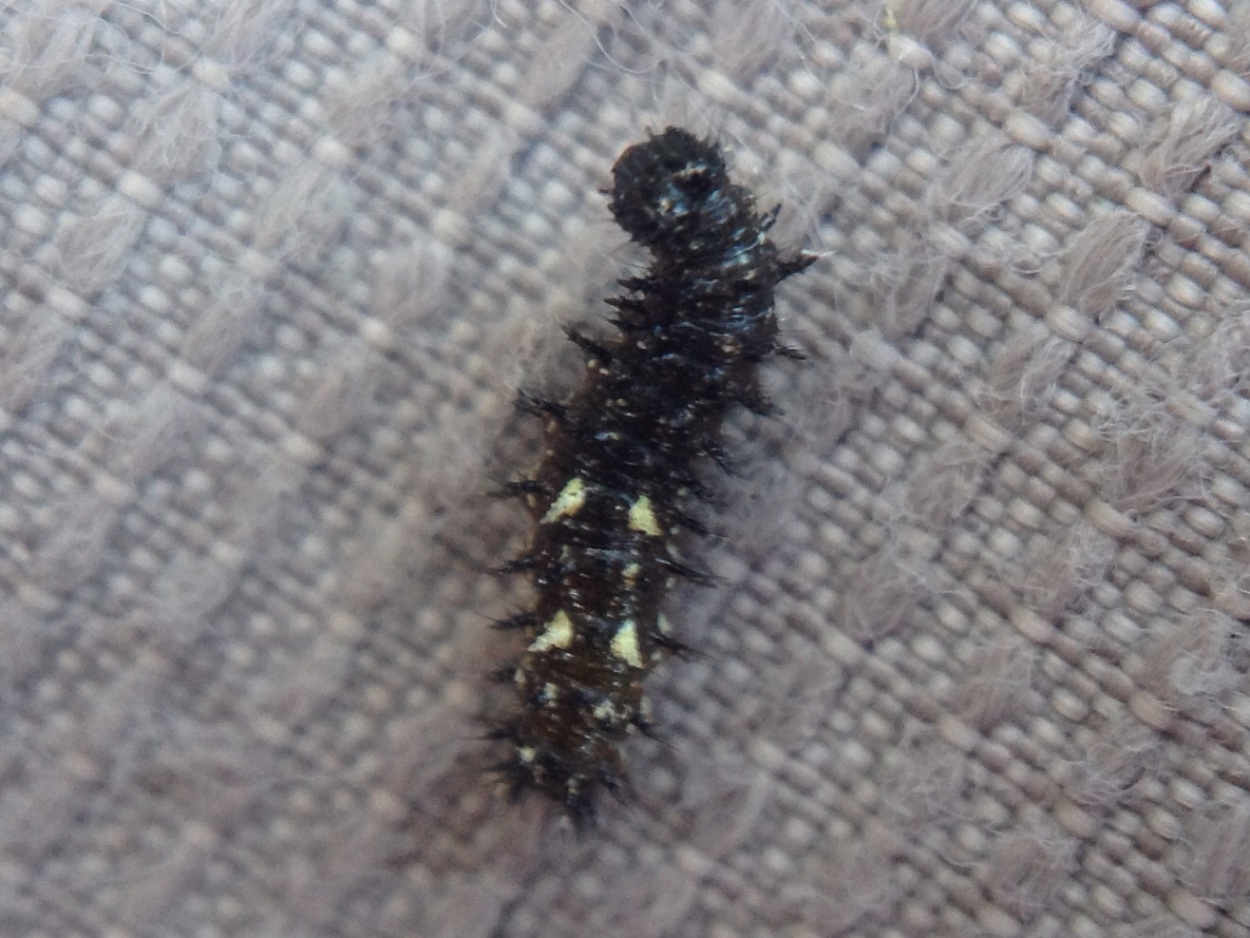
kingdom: Animalia
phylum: Arthropoda
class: Insecta
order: Lepidoptera
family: Nymphalidae
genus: Vanessa
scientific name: Vanessa itea
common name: Yellow admiral
